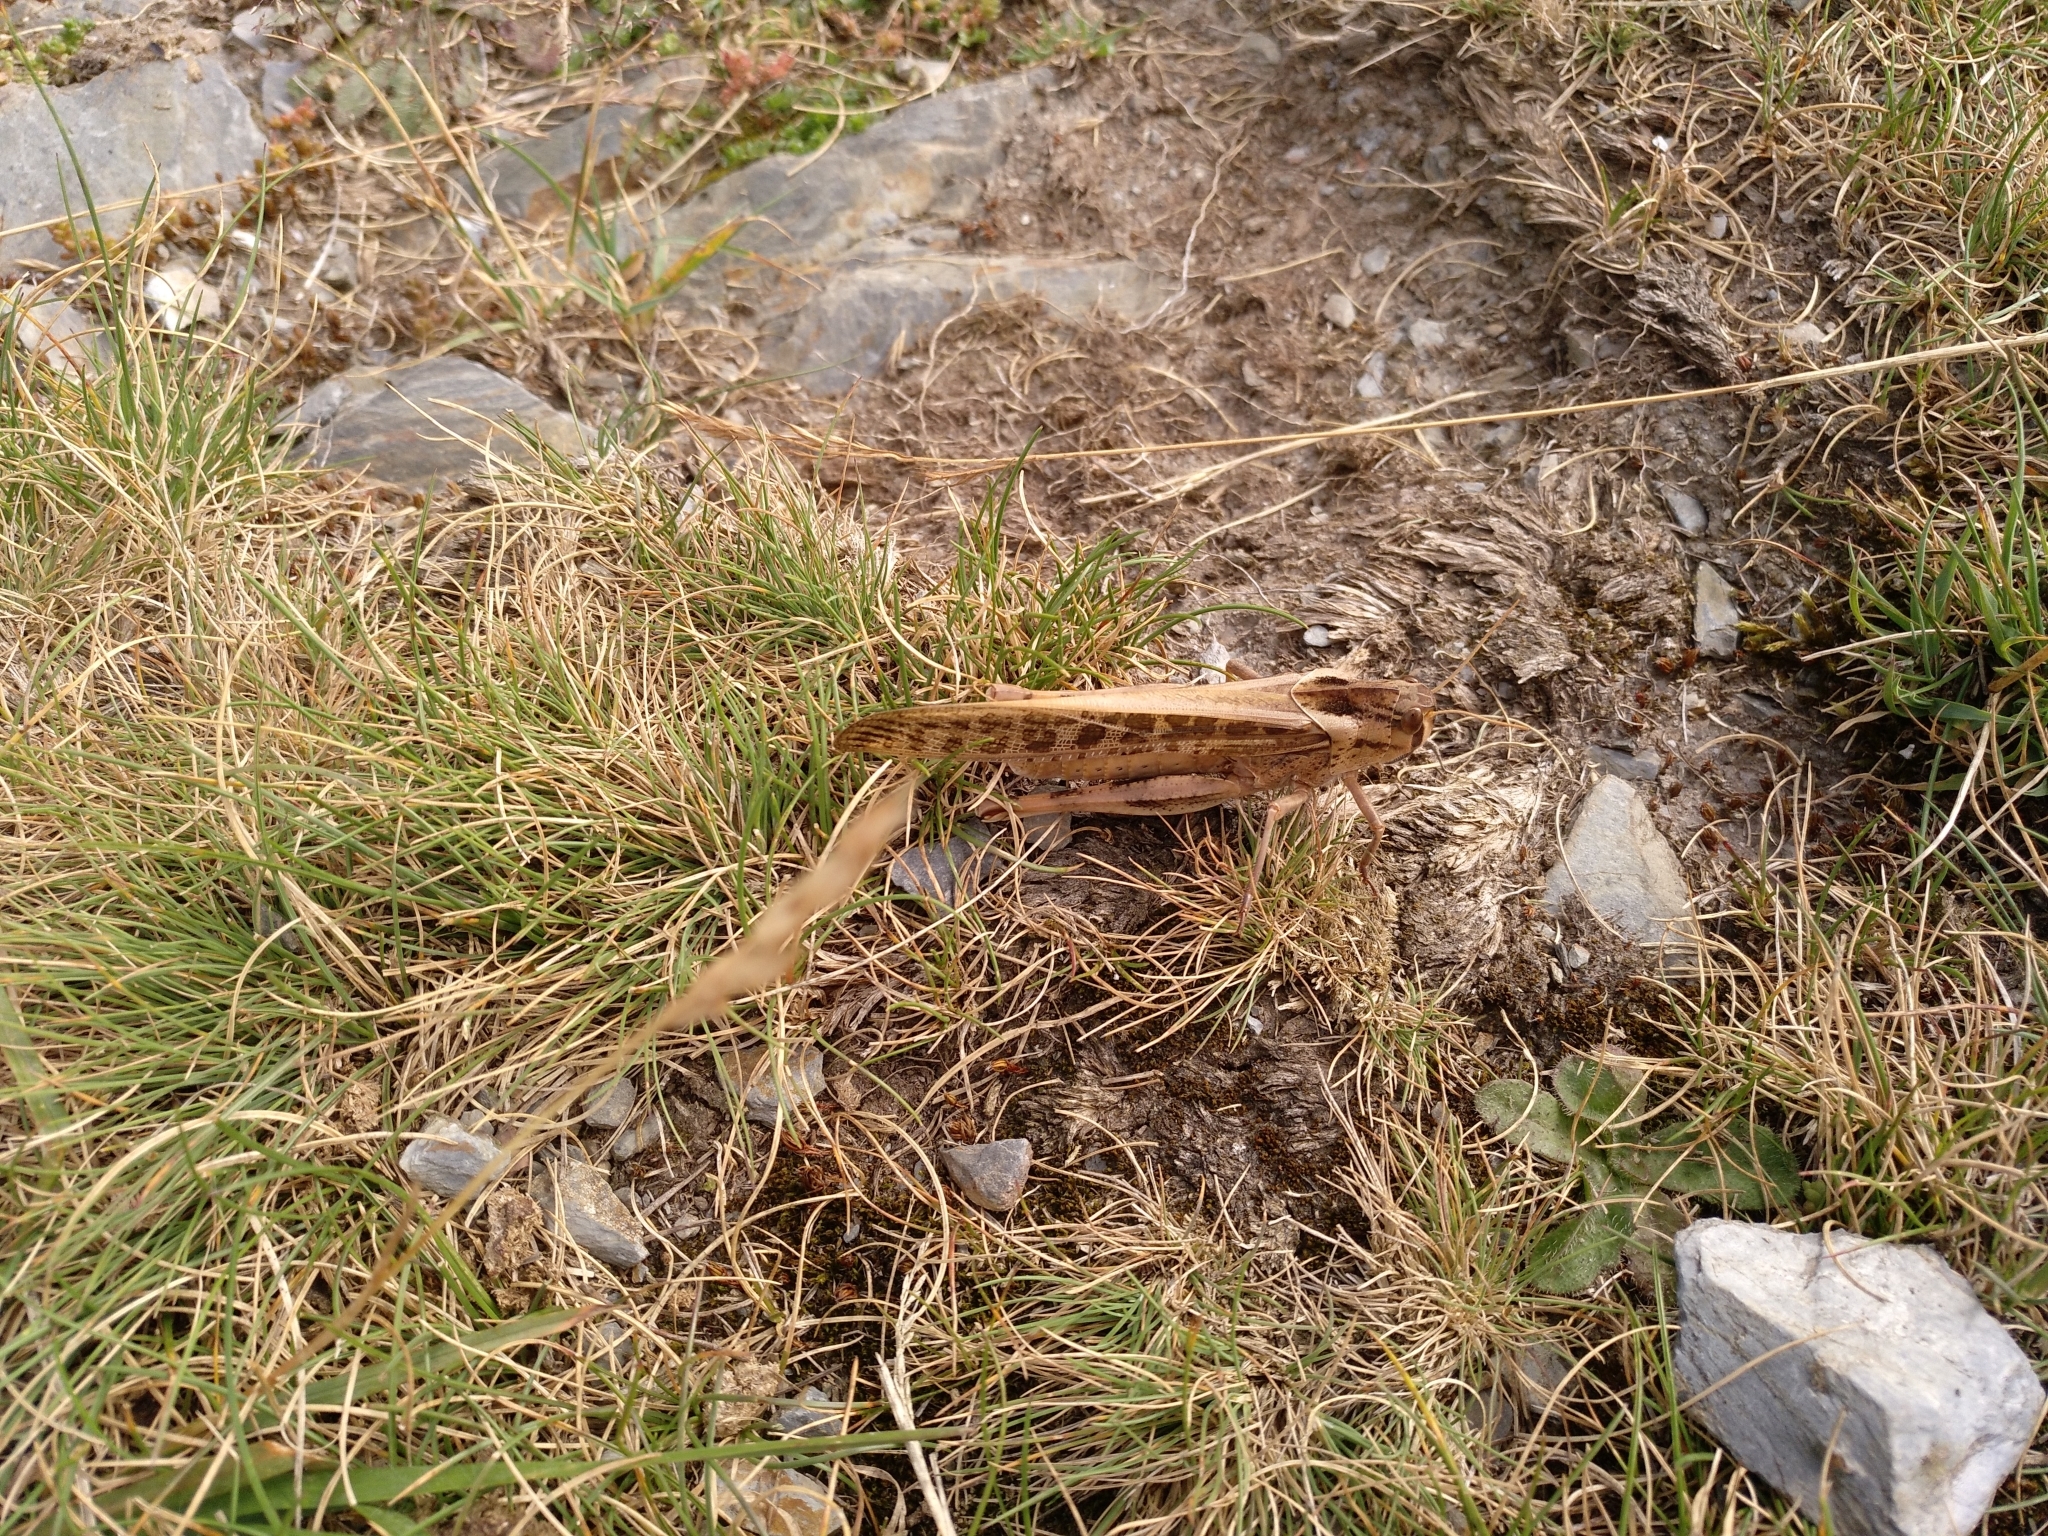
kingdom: Animalia
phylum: Arthropoda
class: Insecta
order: Orthoptera
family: Acrididae
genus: Locusta
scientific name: Locusta migratoria
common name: Migratory locust
